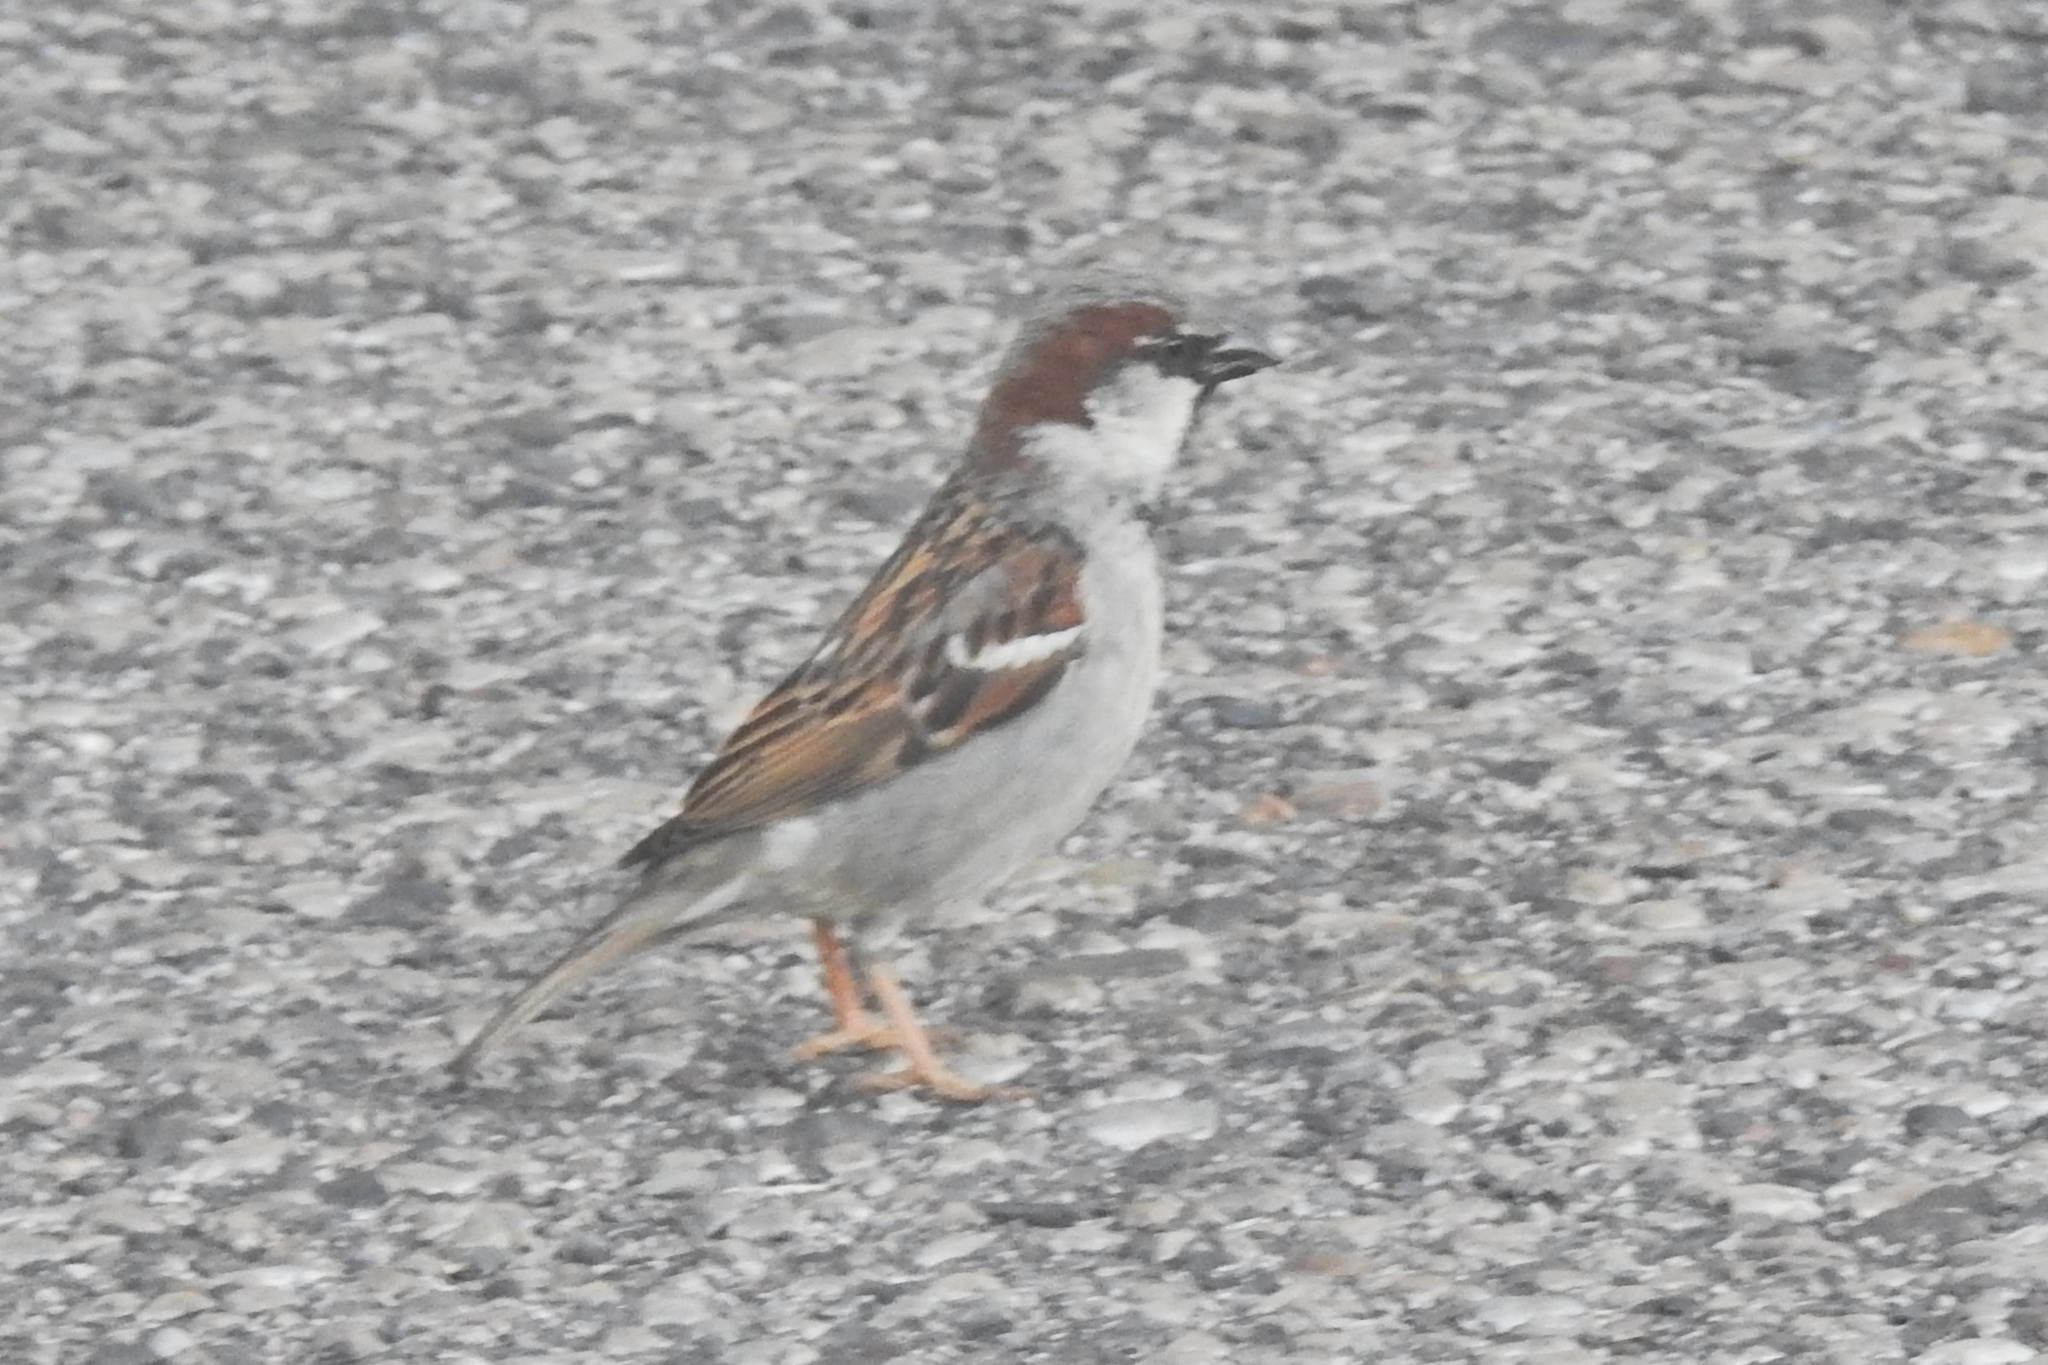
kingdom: Animalia
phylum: Chordata
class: Aves
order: Passeriformes
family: Passeridae
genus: Passer
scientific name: Passer domesticus
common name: House sparrow
